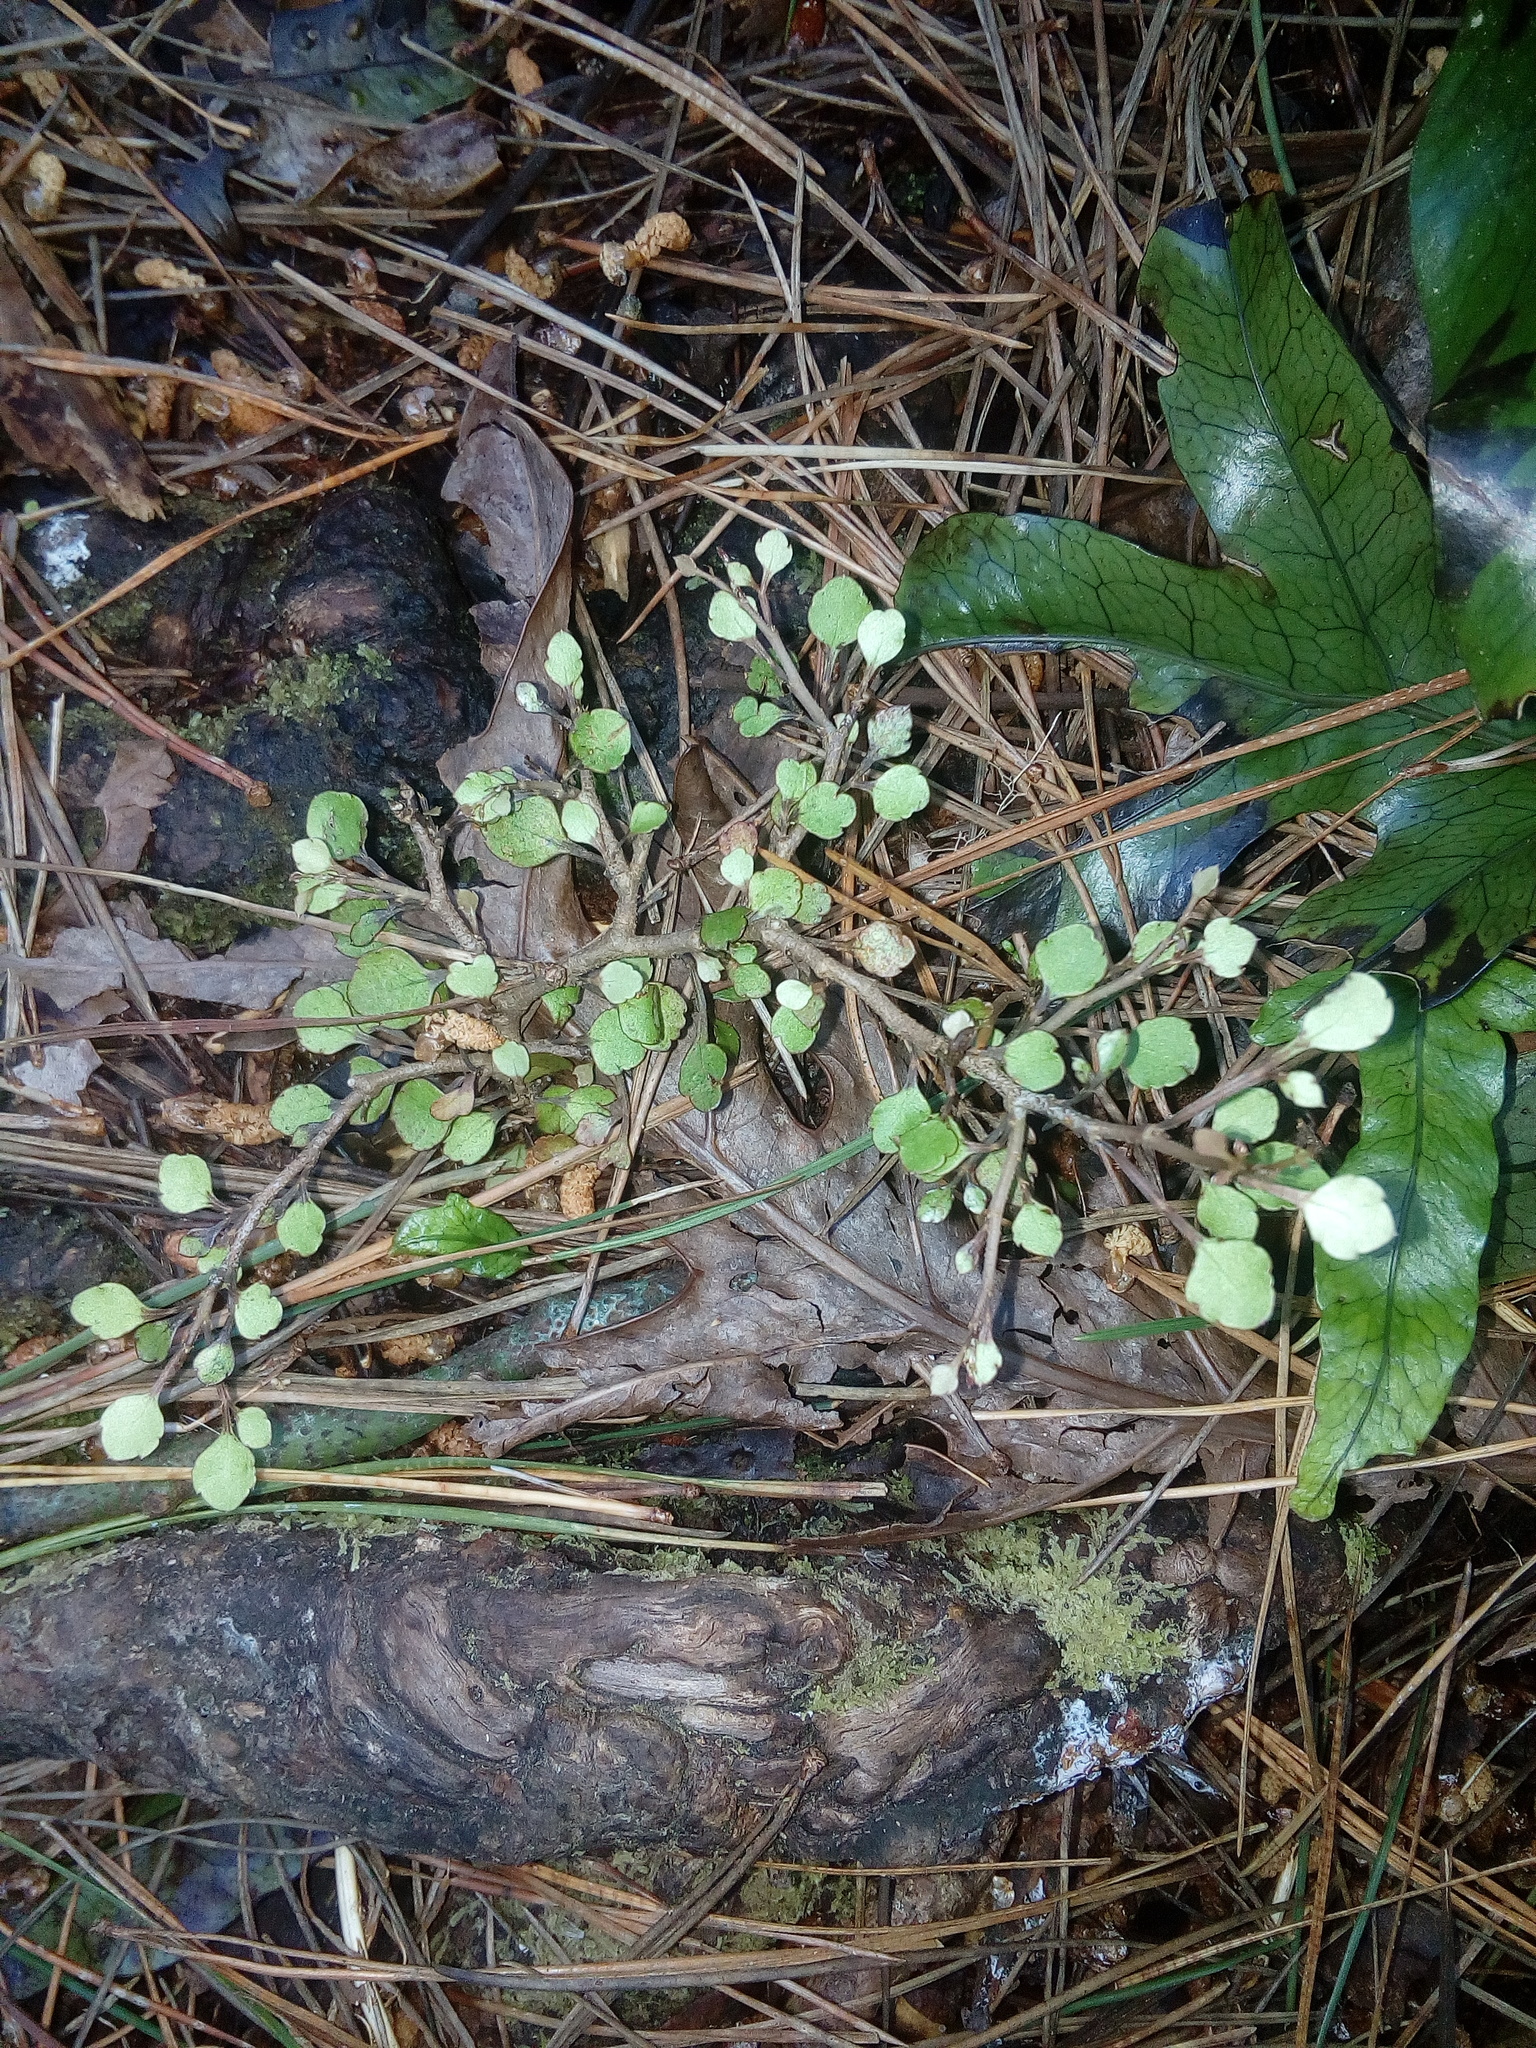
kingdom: Plantae
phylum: Tracheophyta
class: Magnoliopsida
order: Apiales
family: Araliaceae
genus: Raukaua
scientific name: Raukaua anomalus
